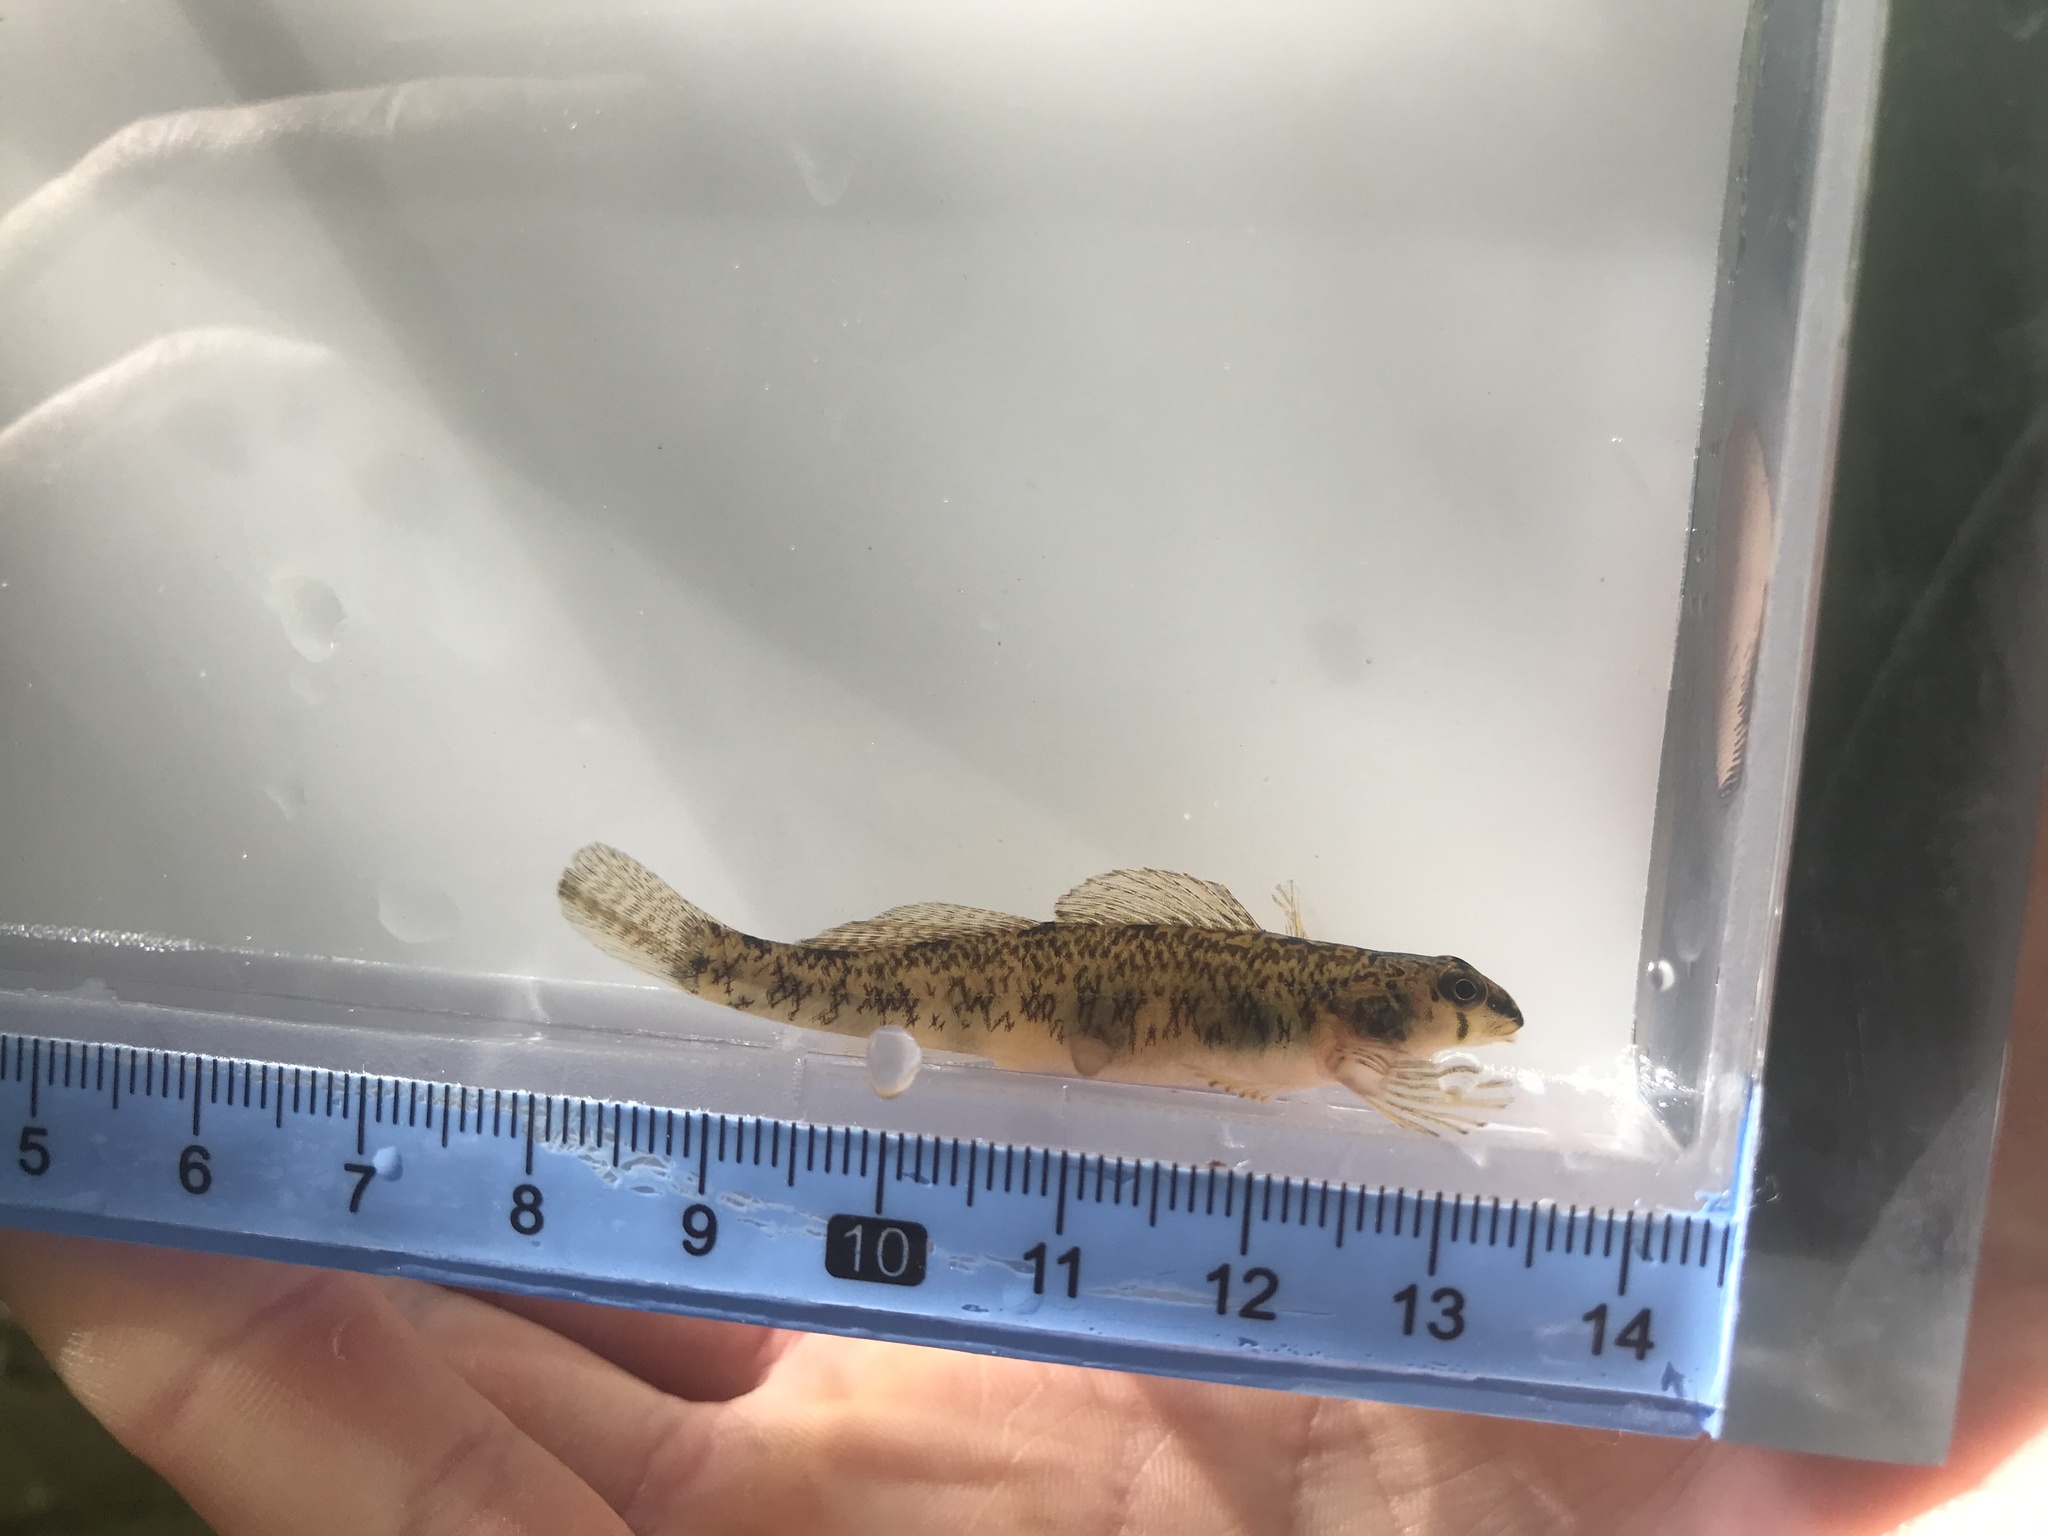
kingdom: Animalia
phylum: Chordata
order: Perciformes
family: Percidae
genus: Etheostoma
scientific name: Etheostoma olmstedi
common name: Tessellated darter
